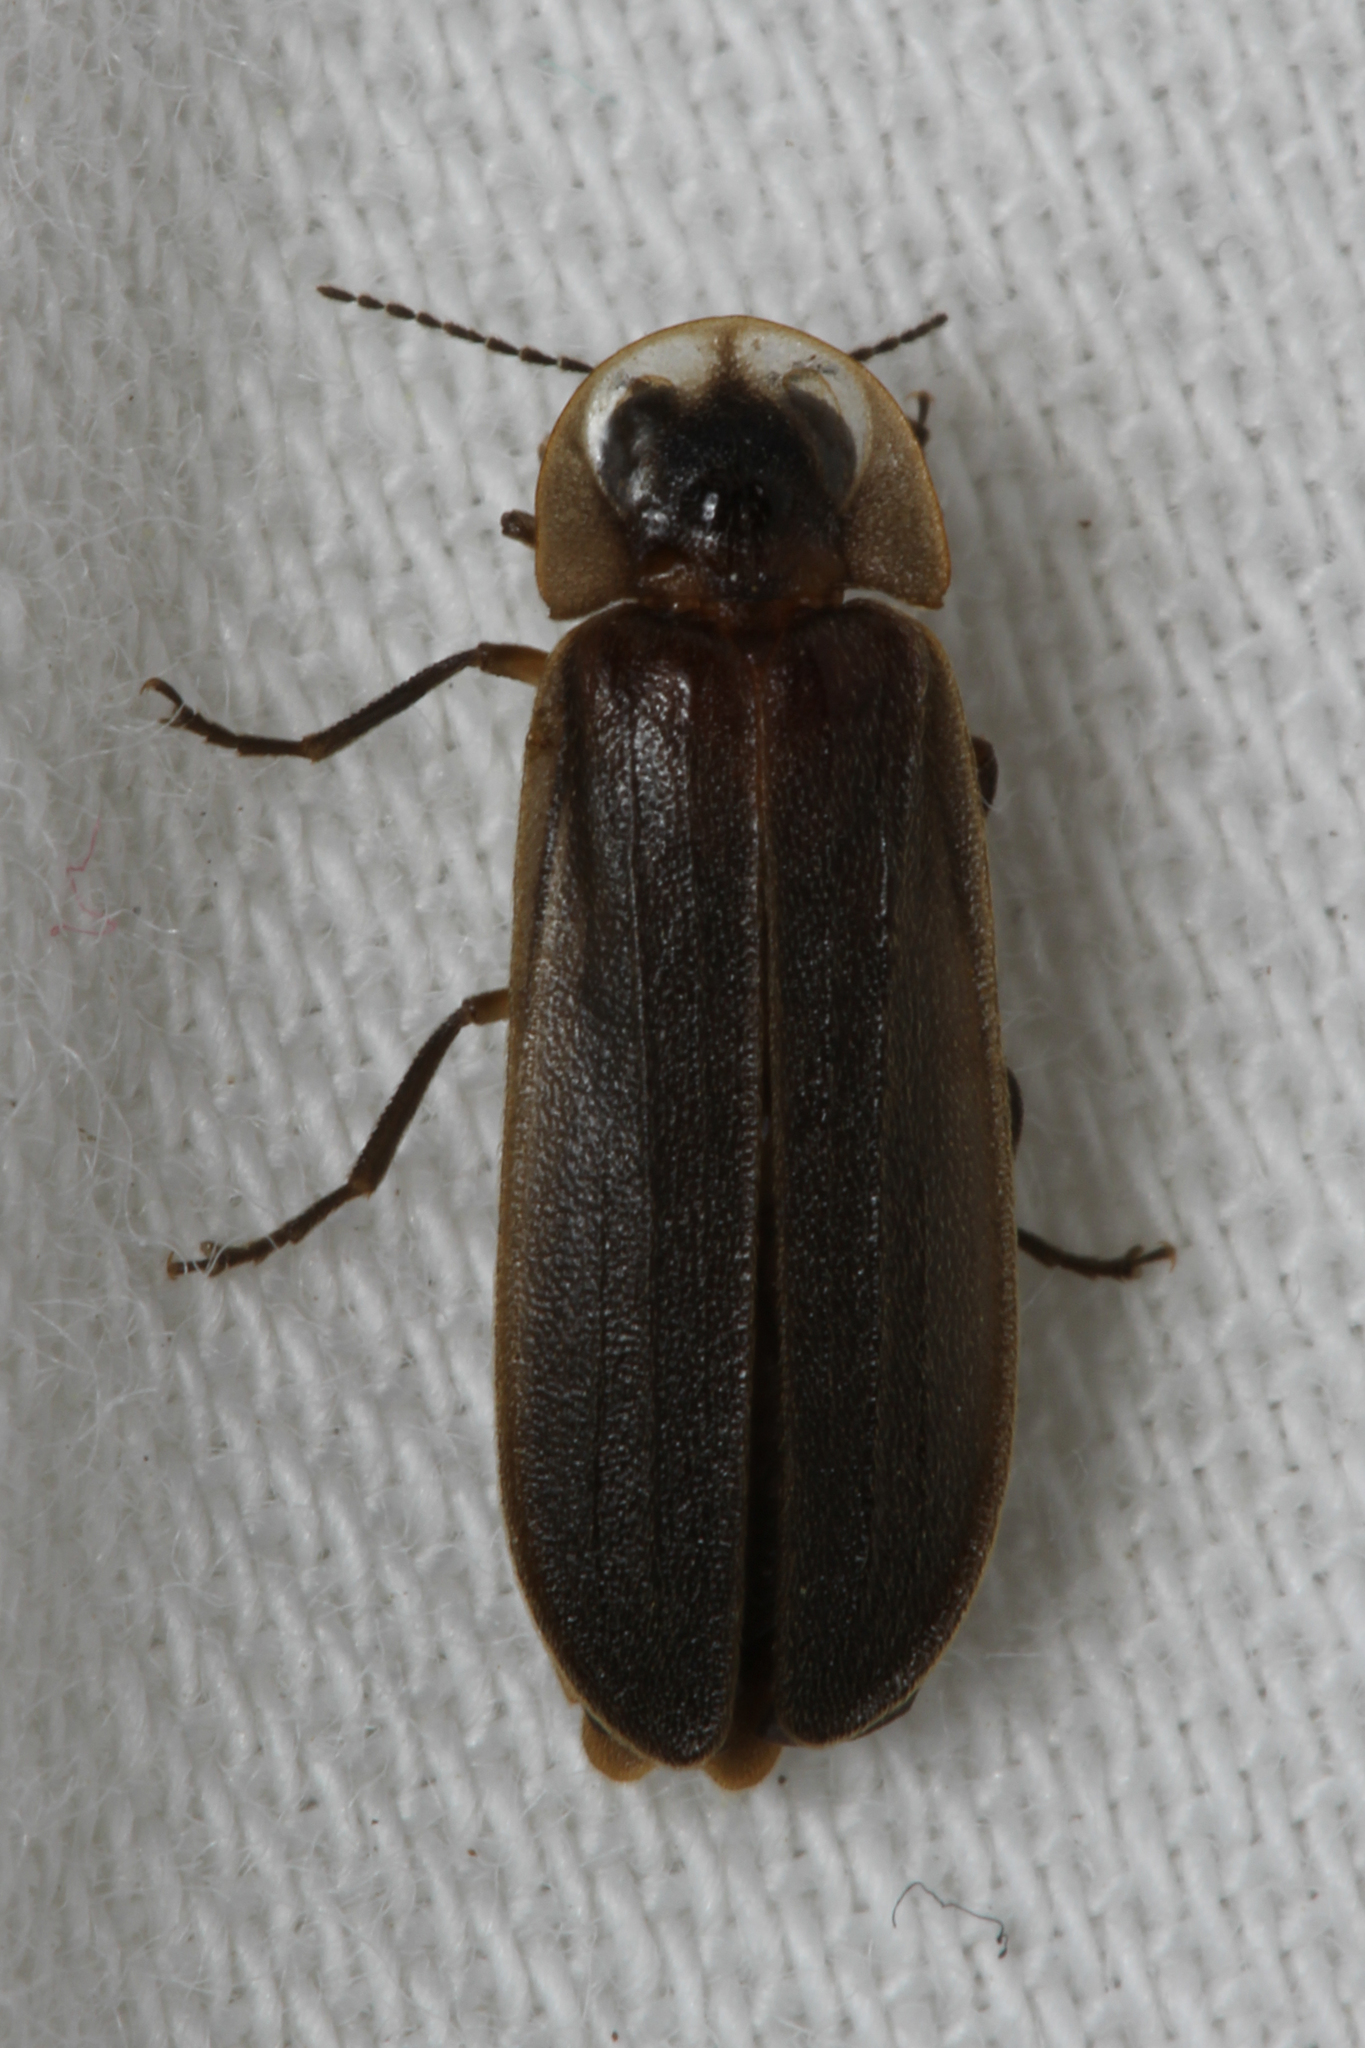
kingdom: Animalia
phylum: Arthropoda
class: Insecta
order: Coleoptera
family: Lampyridae
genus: Lamprohiza
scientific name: Lamprohiza mulsantii
